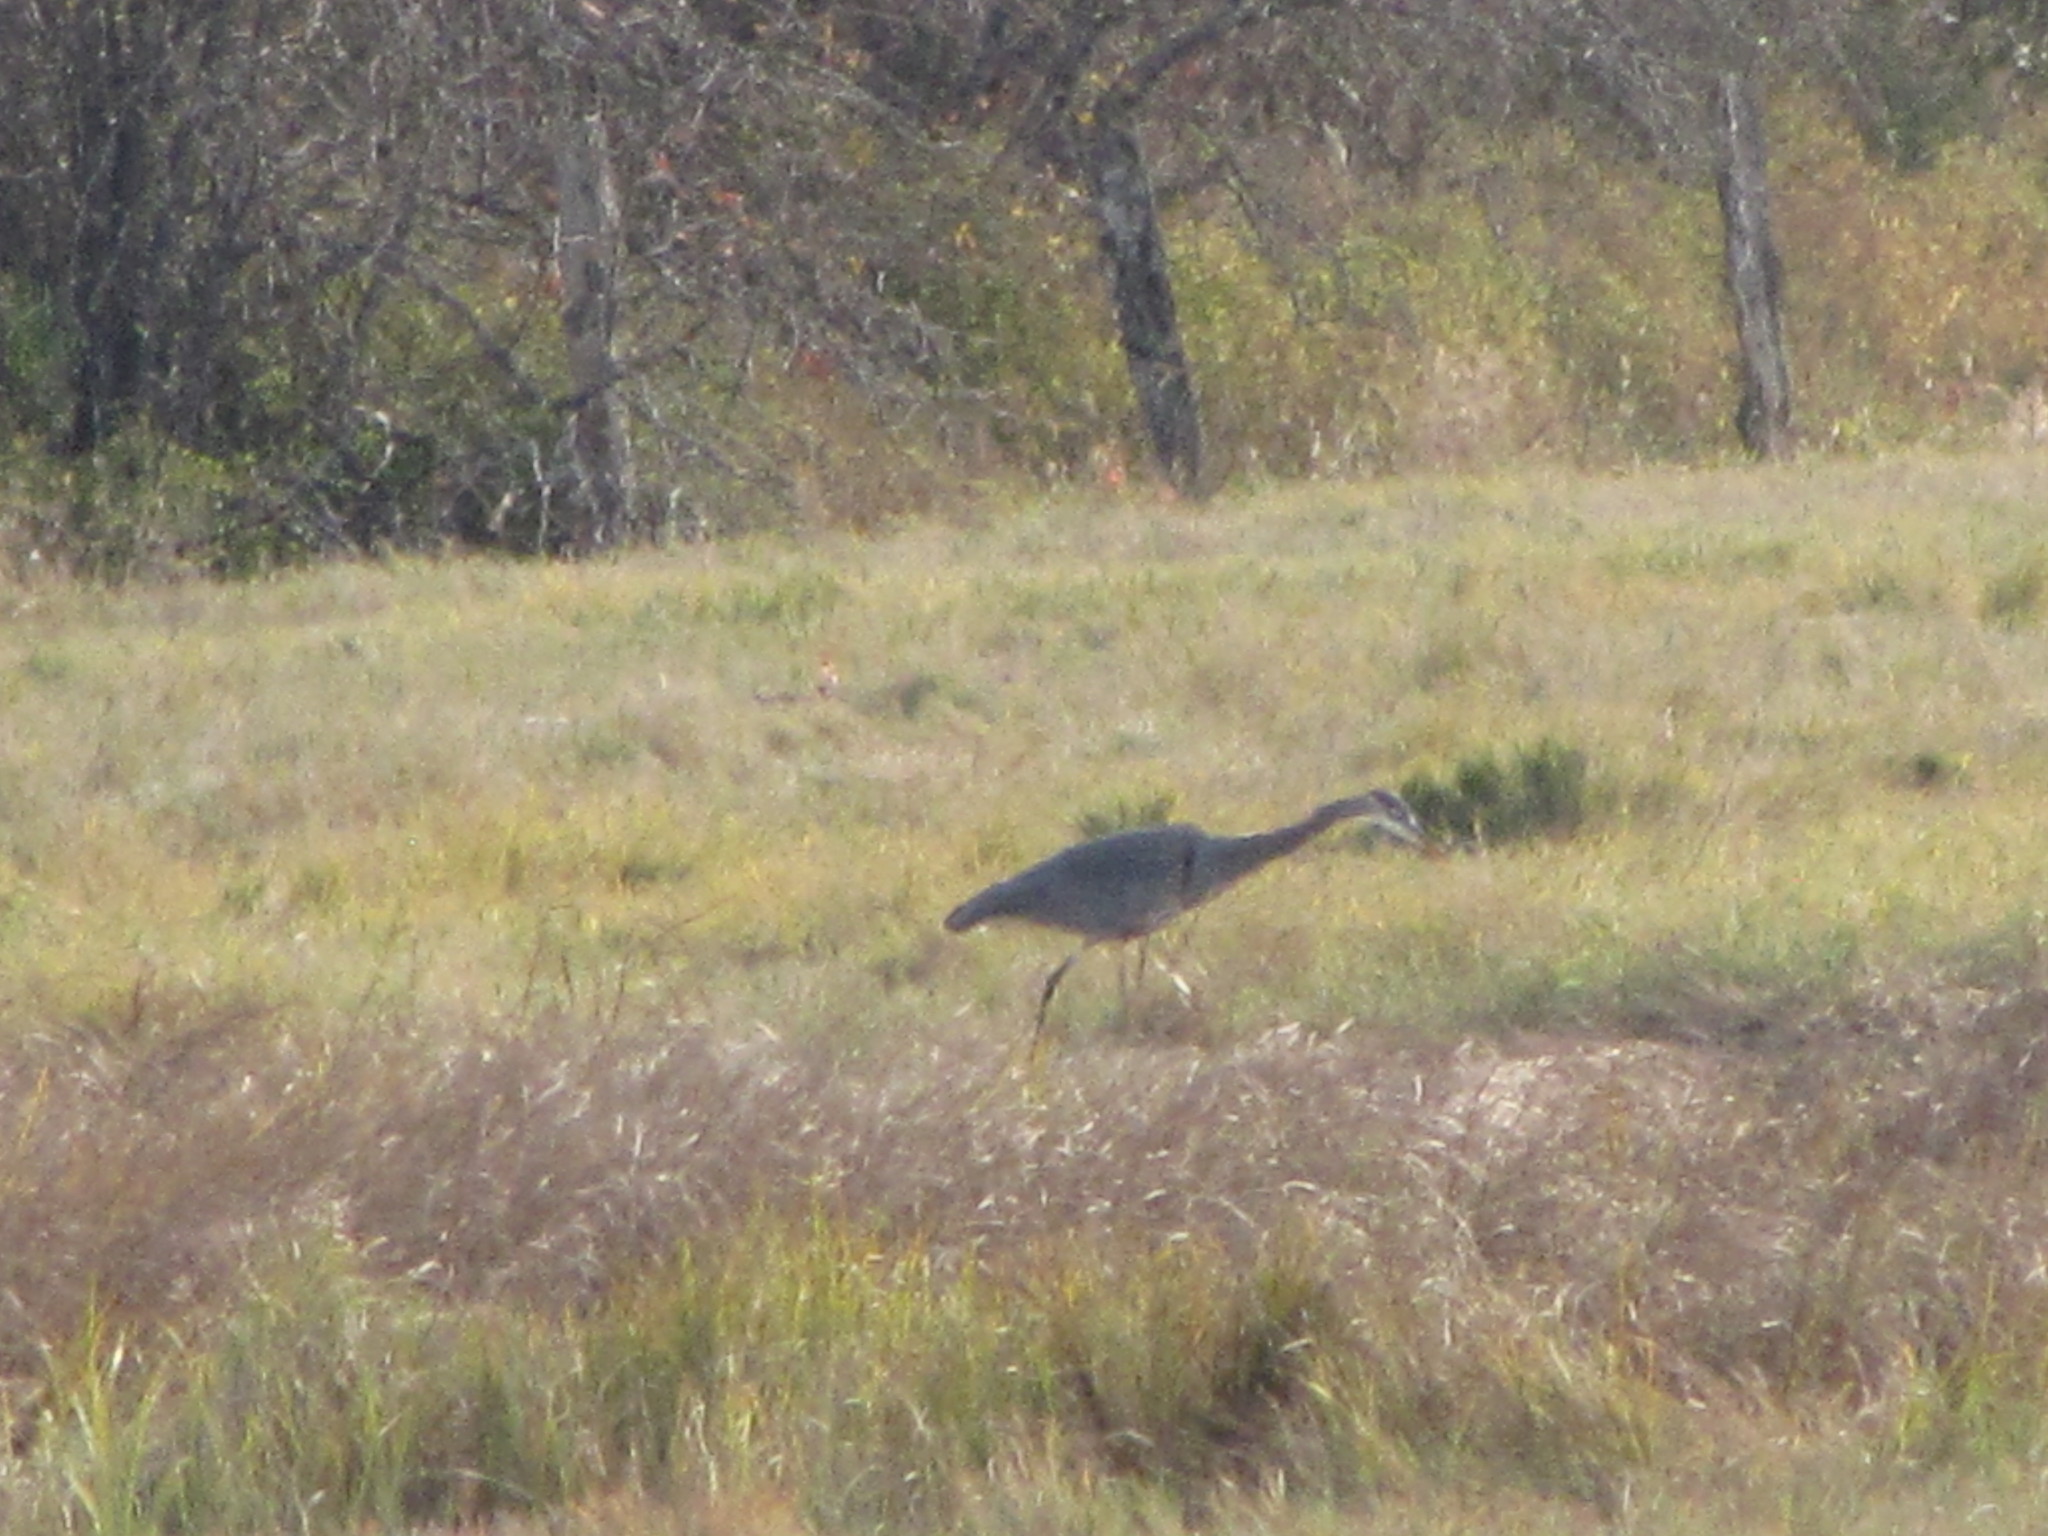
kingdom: Animalia
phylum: Chordata
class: Aves
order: Pelecaniformes
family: Ardeidae
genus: Ardea
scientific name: Ardea herodias
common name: Great blue heron
